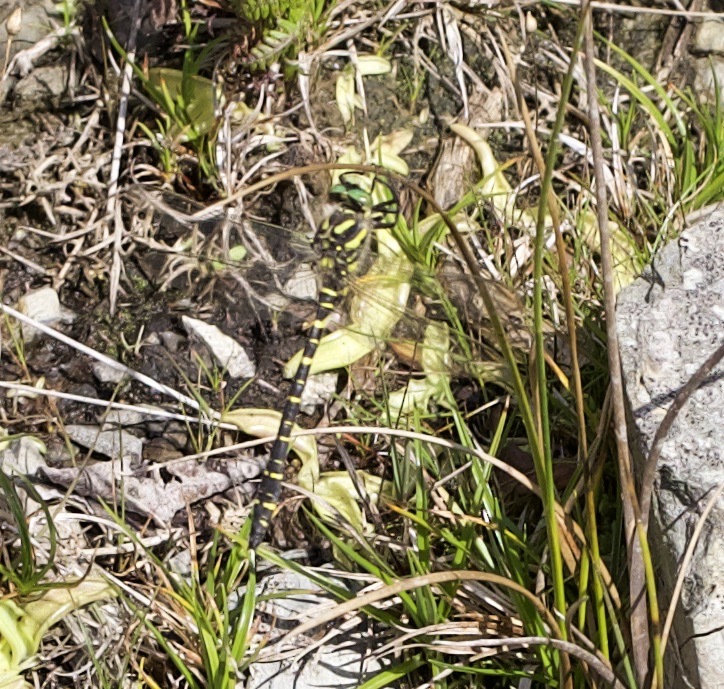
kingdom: Animalia
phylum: Arthropoda
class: Insecta
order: Odonata
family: Cordulegastridae
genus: Cordulegaster
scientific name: Cordulegaster boltonii
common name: Golden-ringed dragonfly
